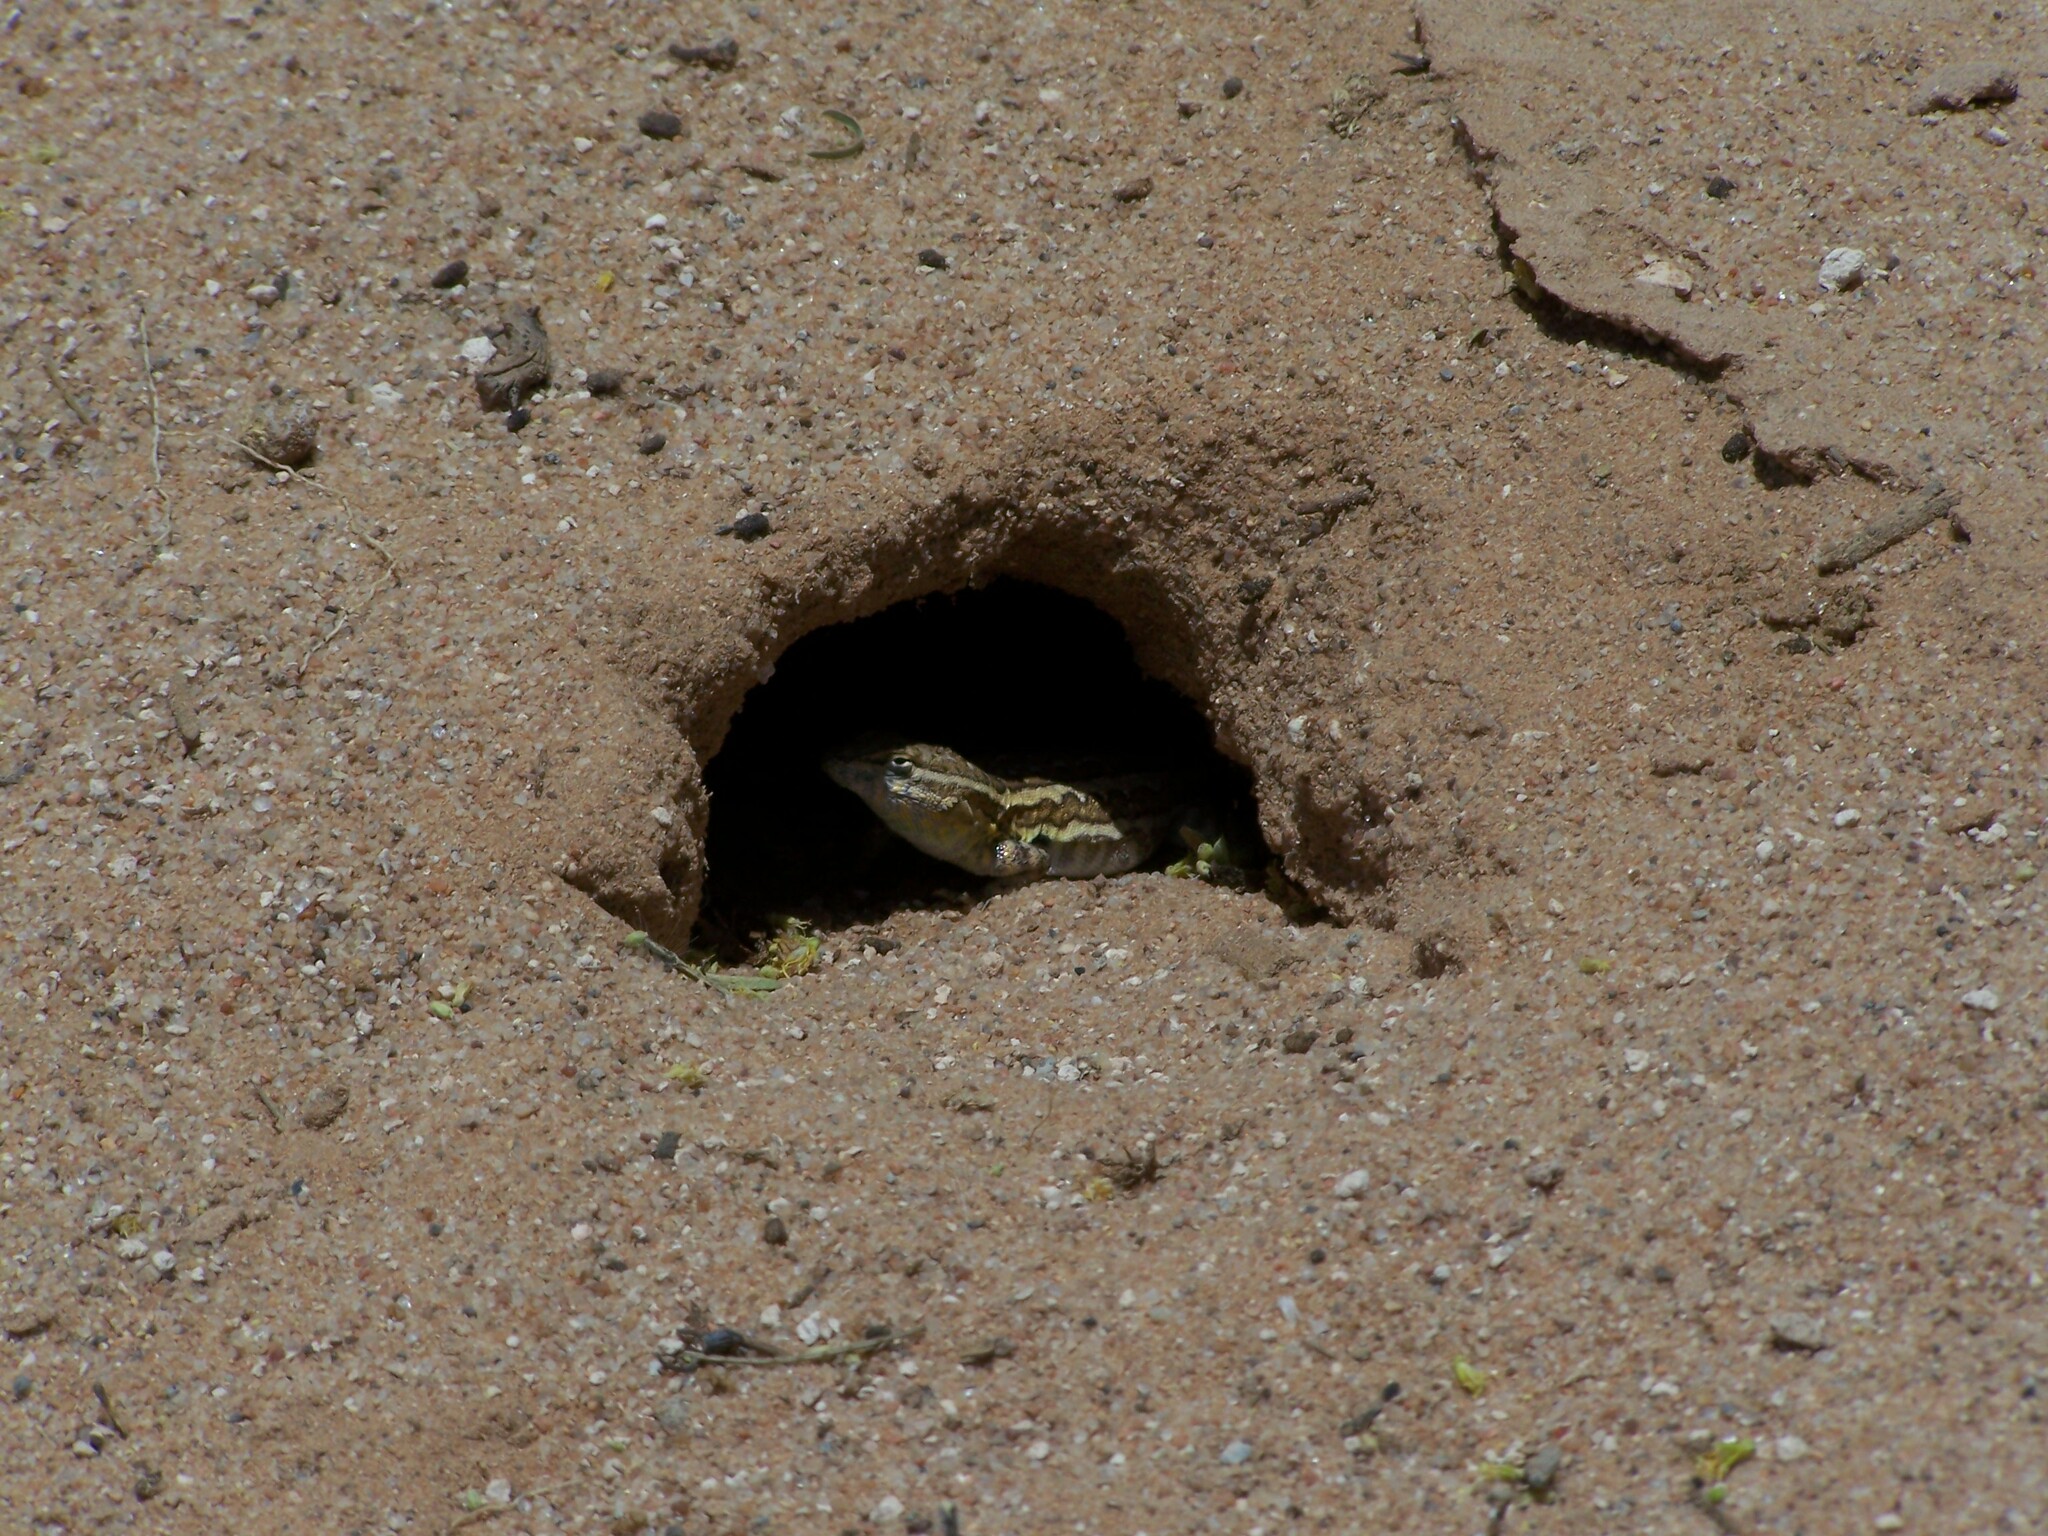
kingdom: Animalia
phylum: Chordata
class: Squamata
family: Phrynosomatidae
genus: Uta
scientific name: Uta stansburiana
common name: Side-blotched lizard
